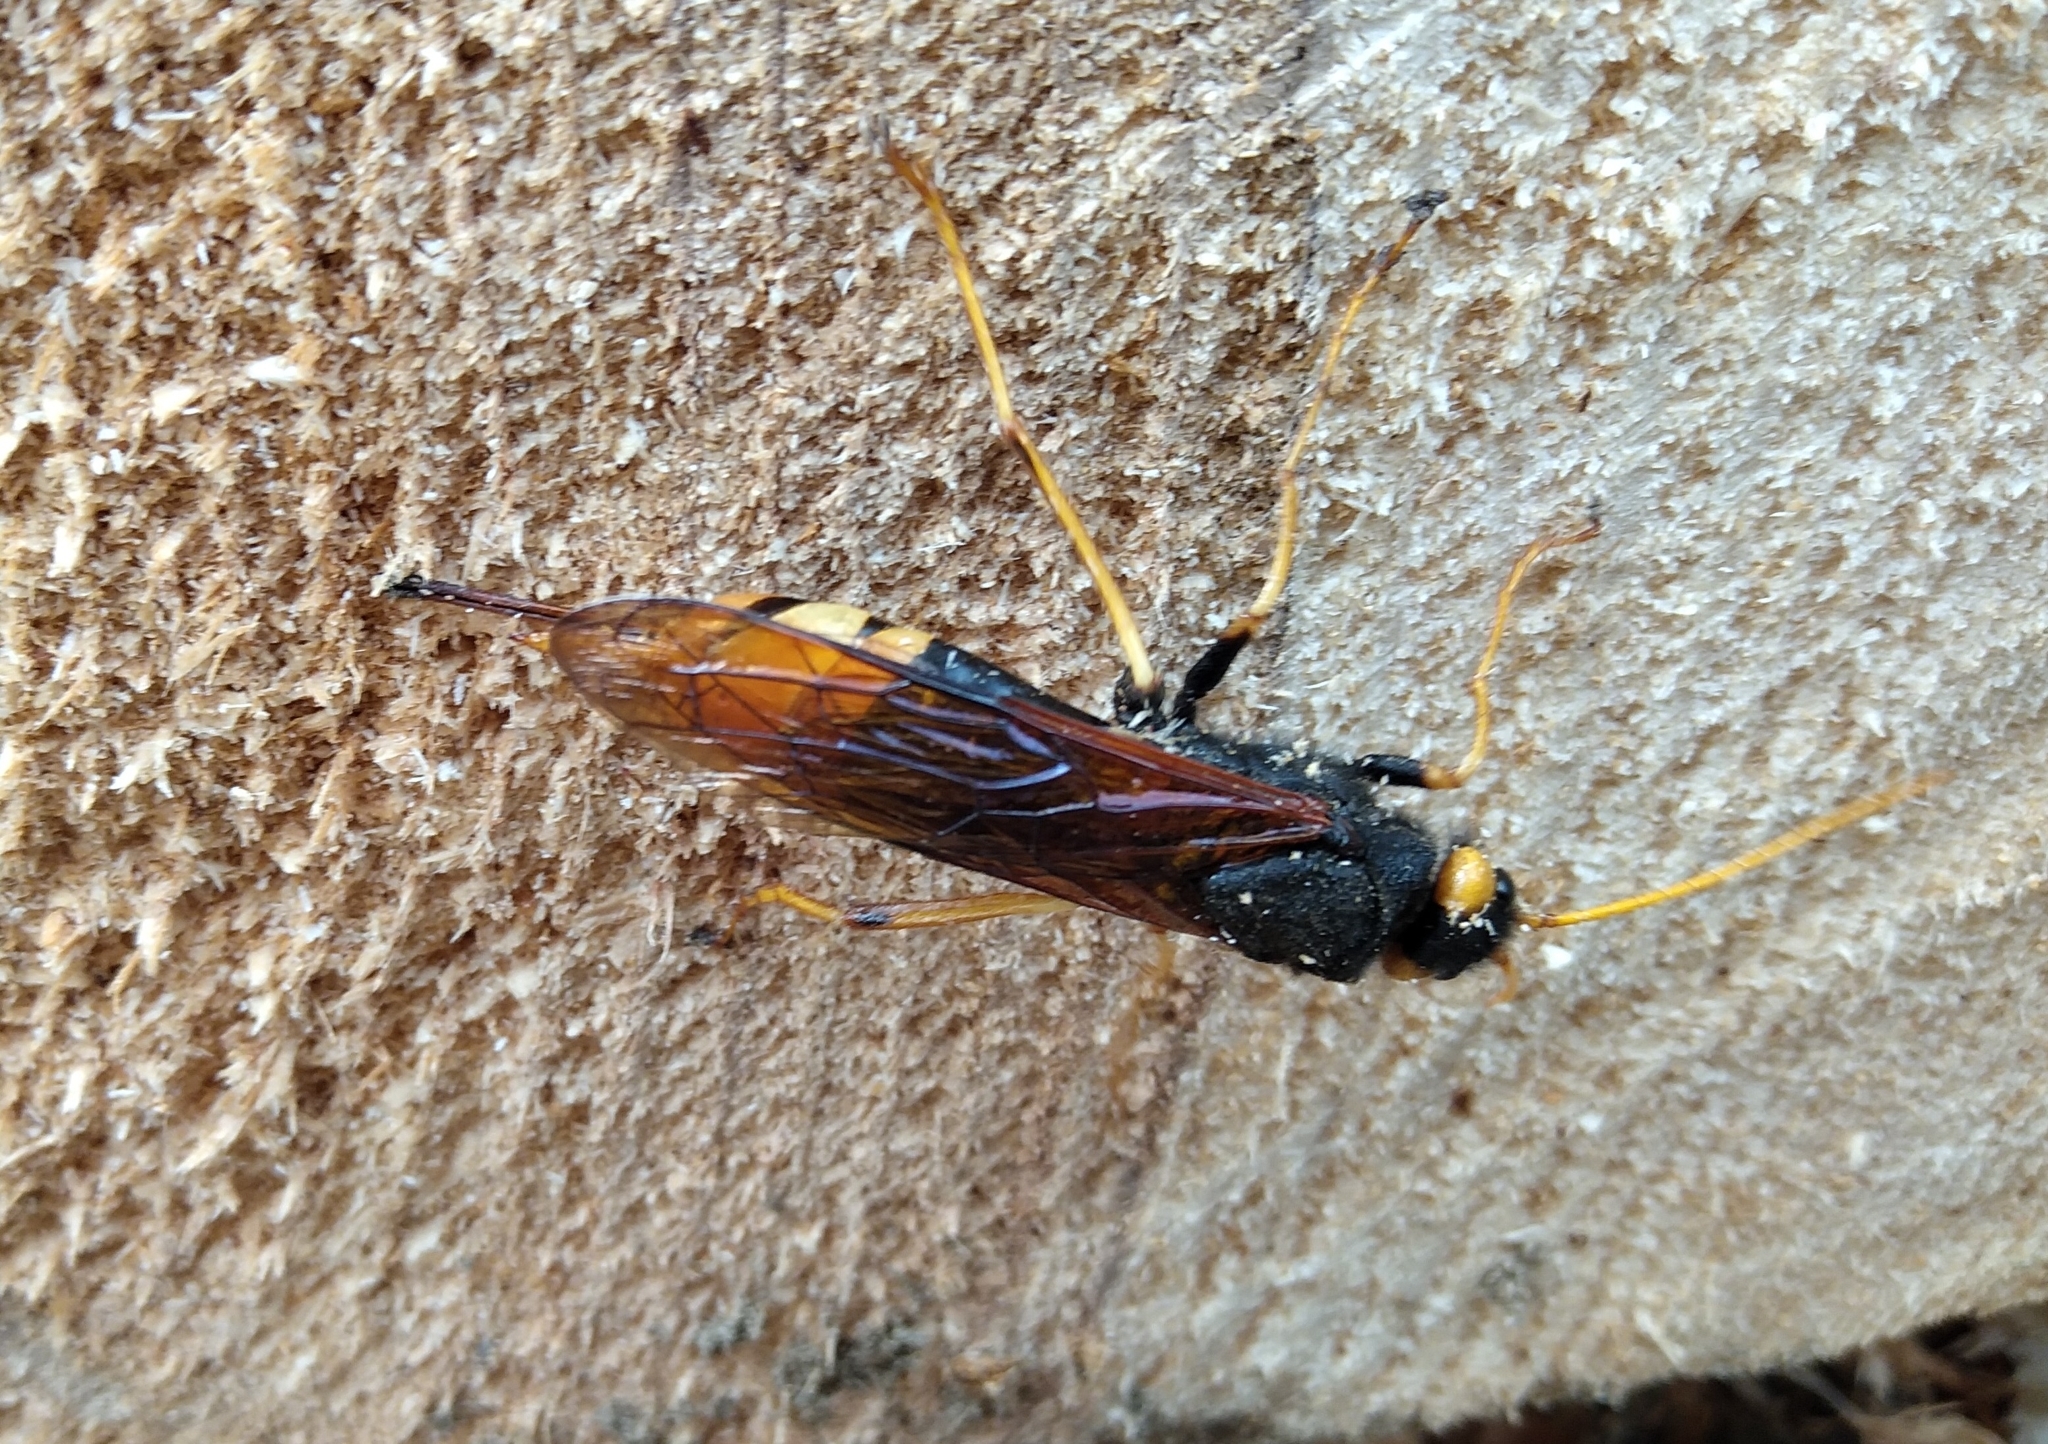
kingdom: Animalia
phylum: Arthropoda
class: Insecta
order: Hymenoptera
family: Siricidae
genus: Urocerus
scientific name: Urocerus gigas
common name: Giant woodwasp
